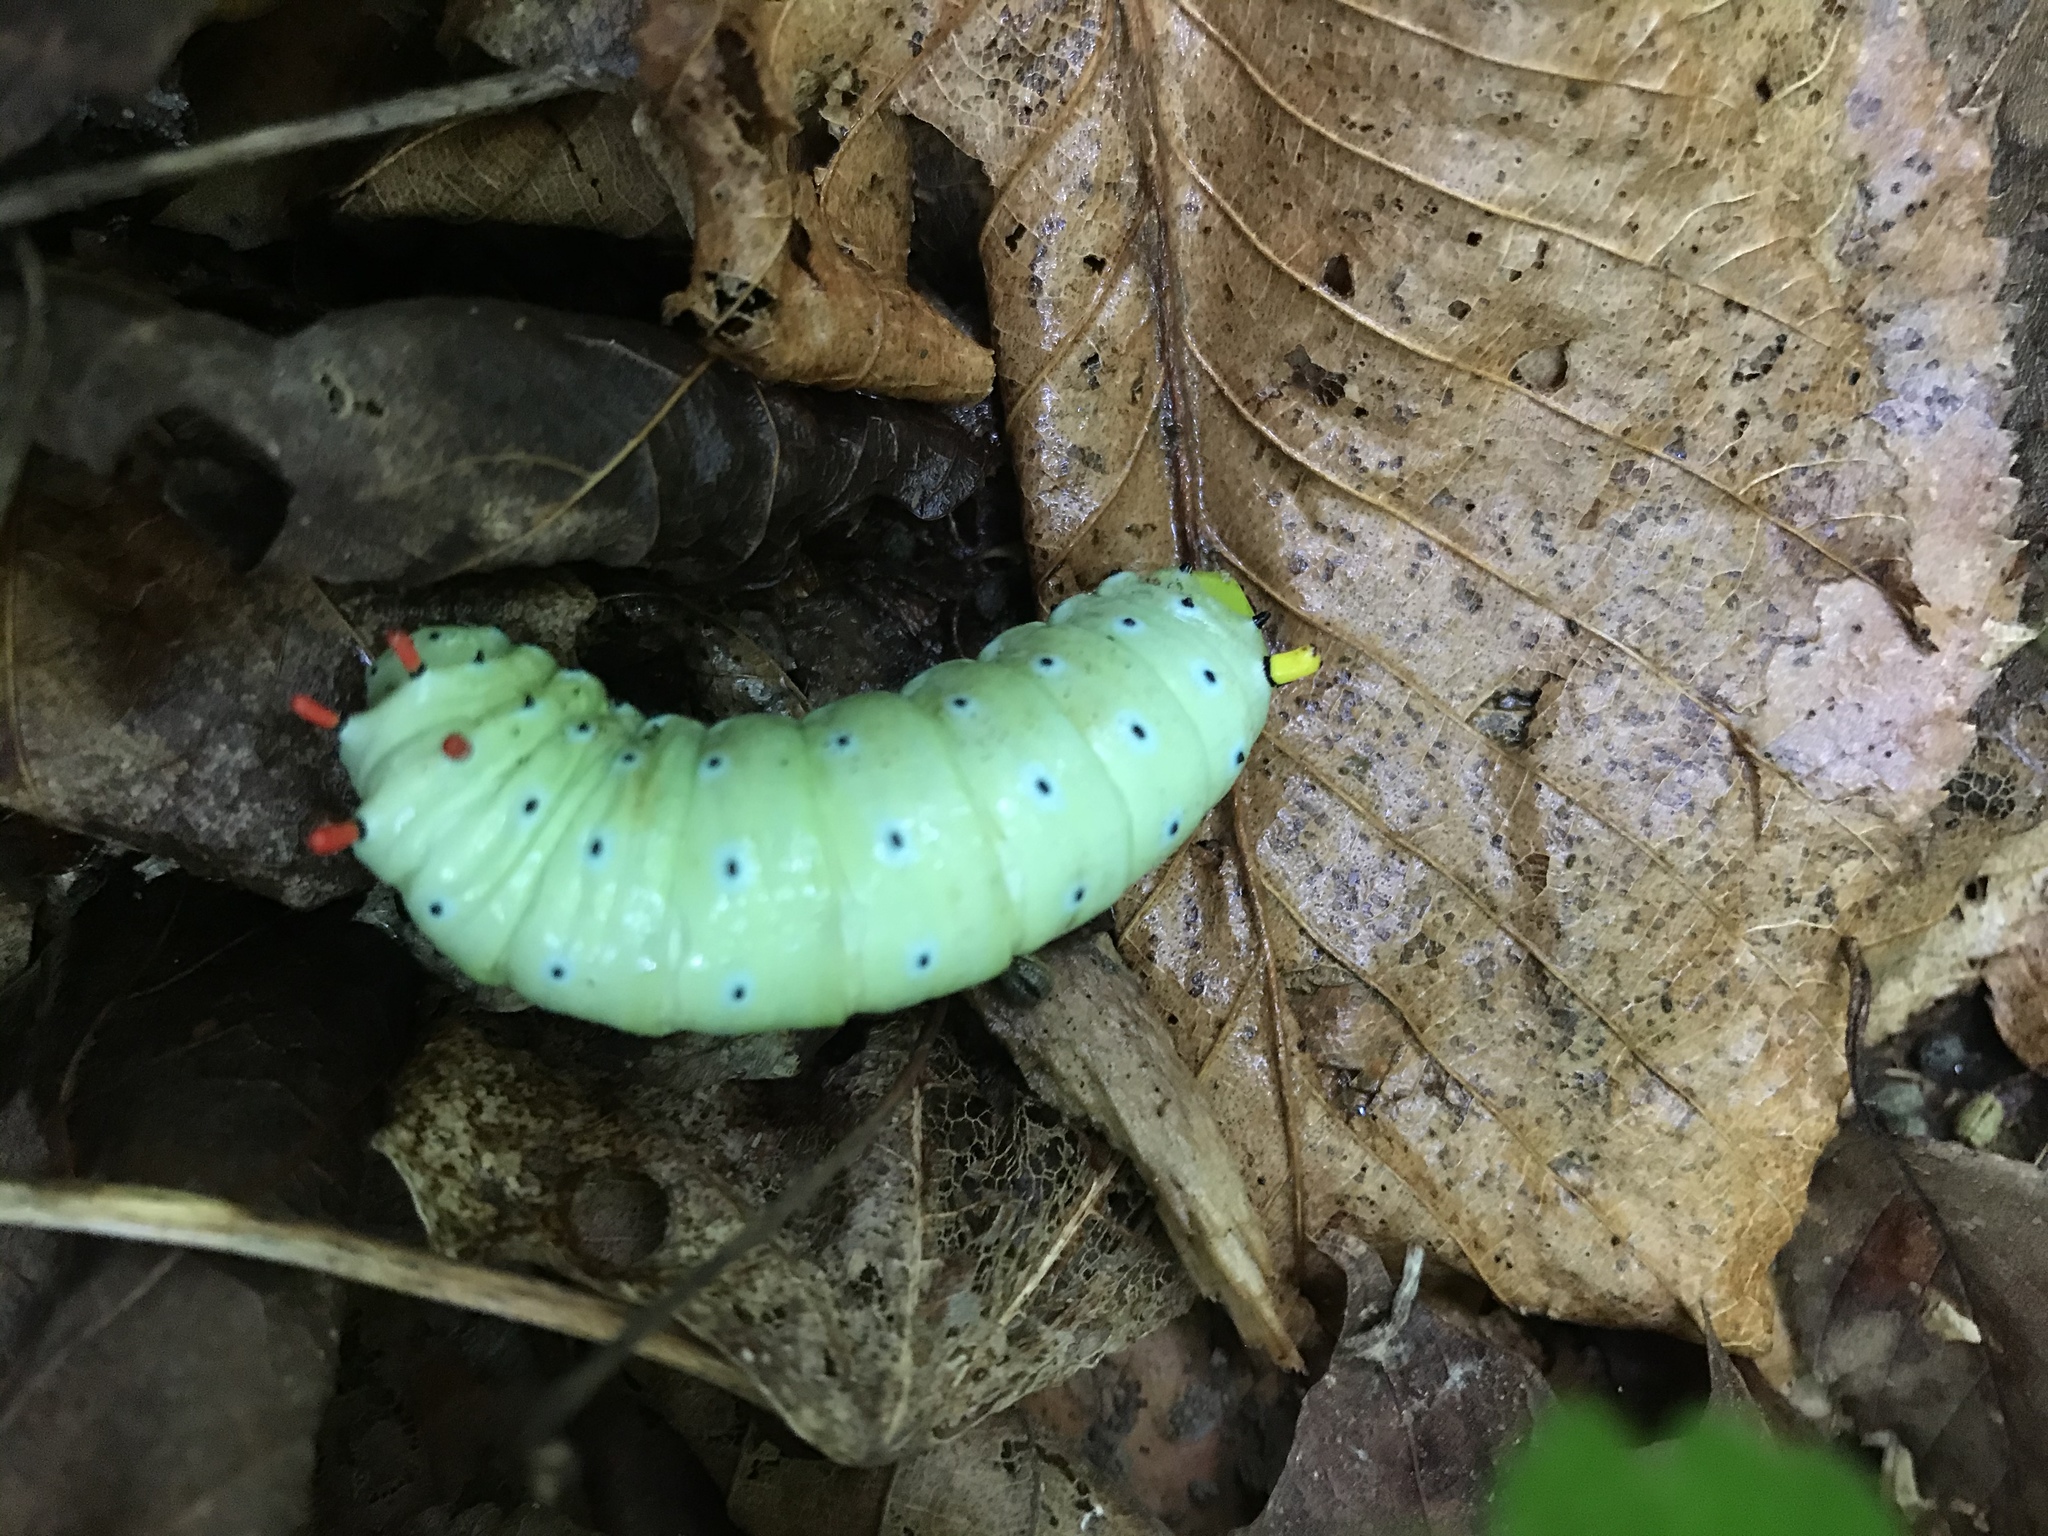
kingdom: Animalia
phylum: Arthropoda
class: Insecta
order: Lepidoptera
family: Saturniidae
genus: Callosamia
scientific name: Callosamia promethea
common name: Promethea silkmoth
